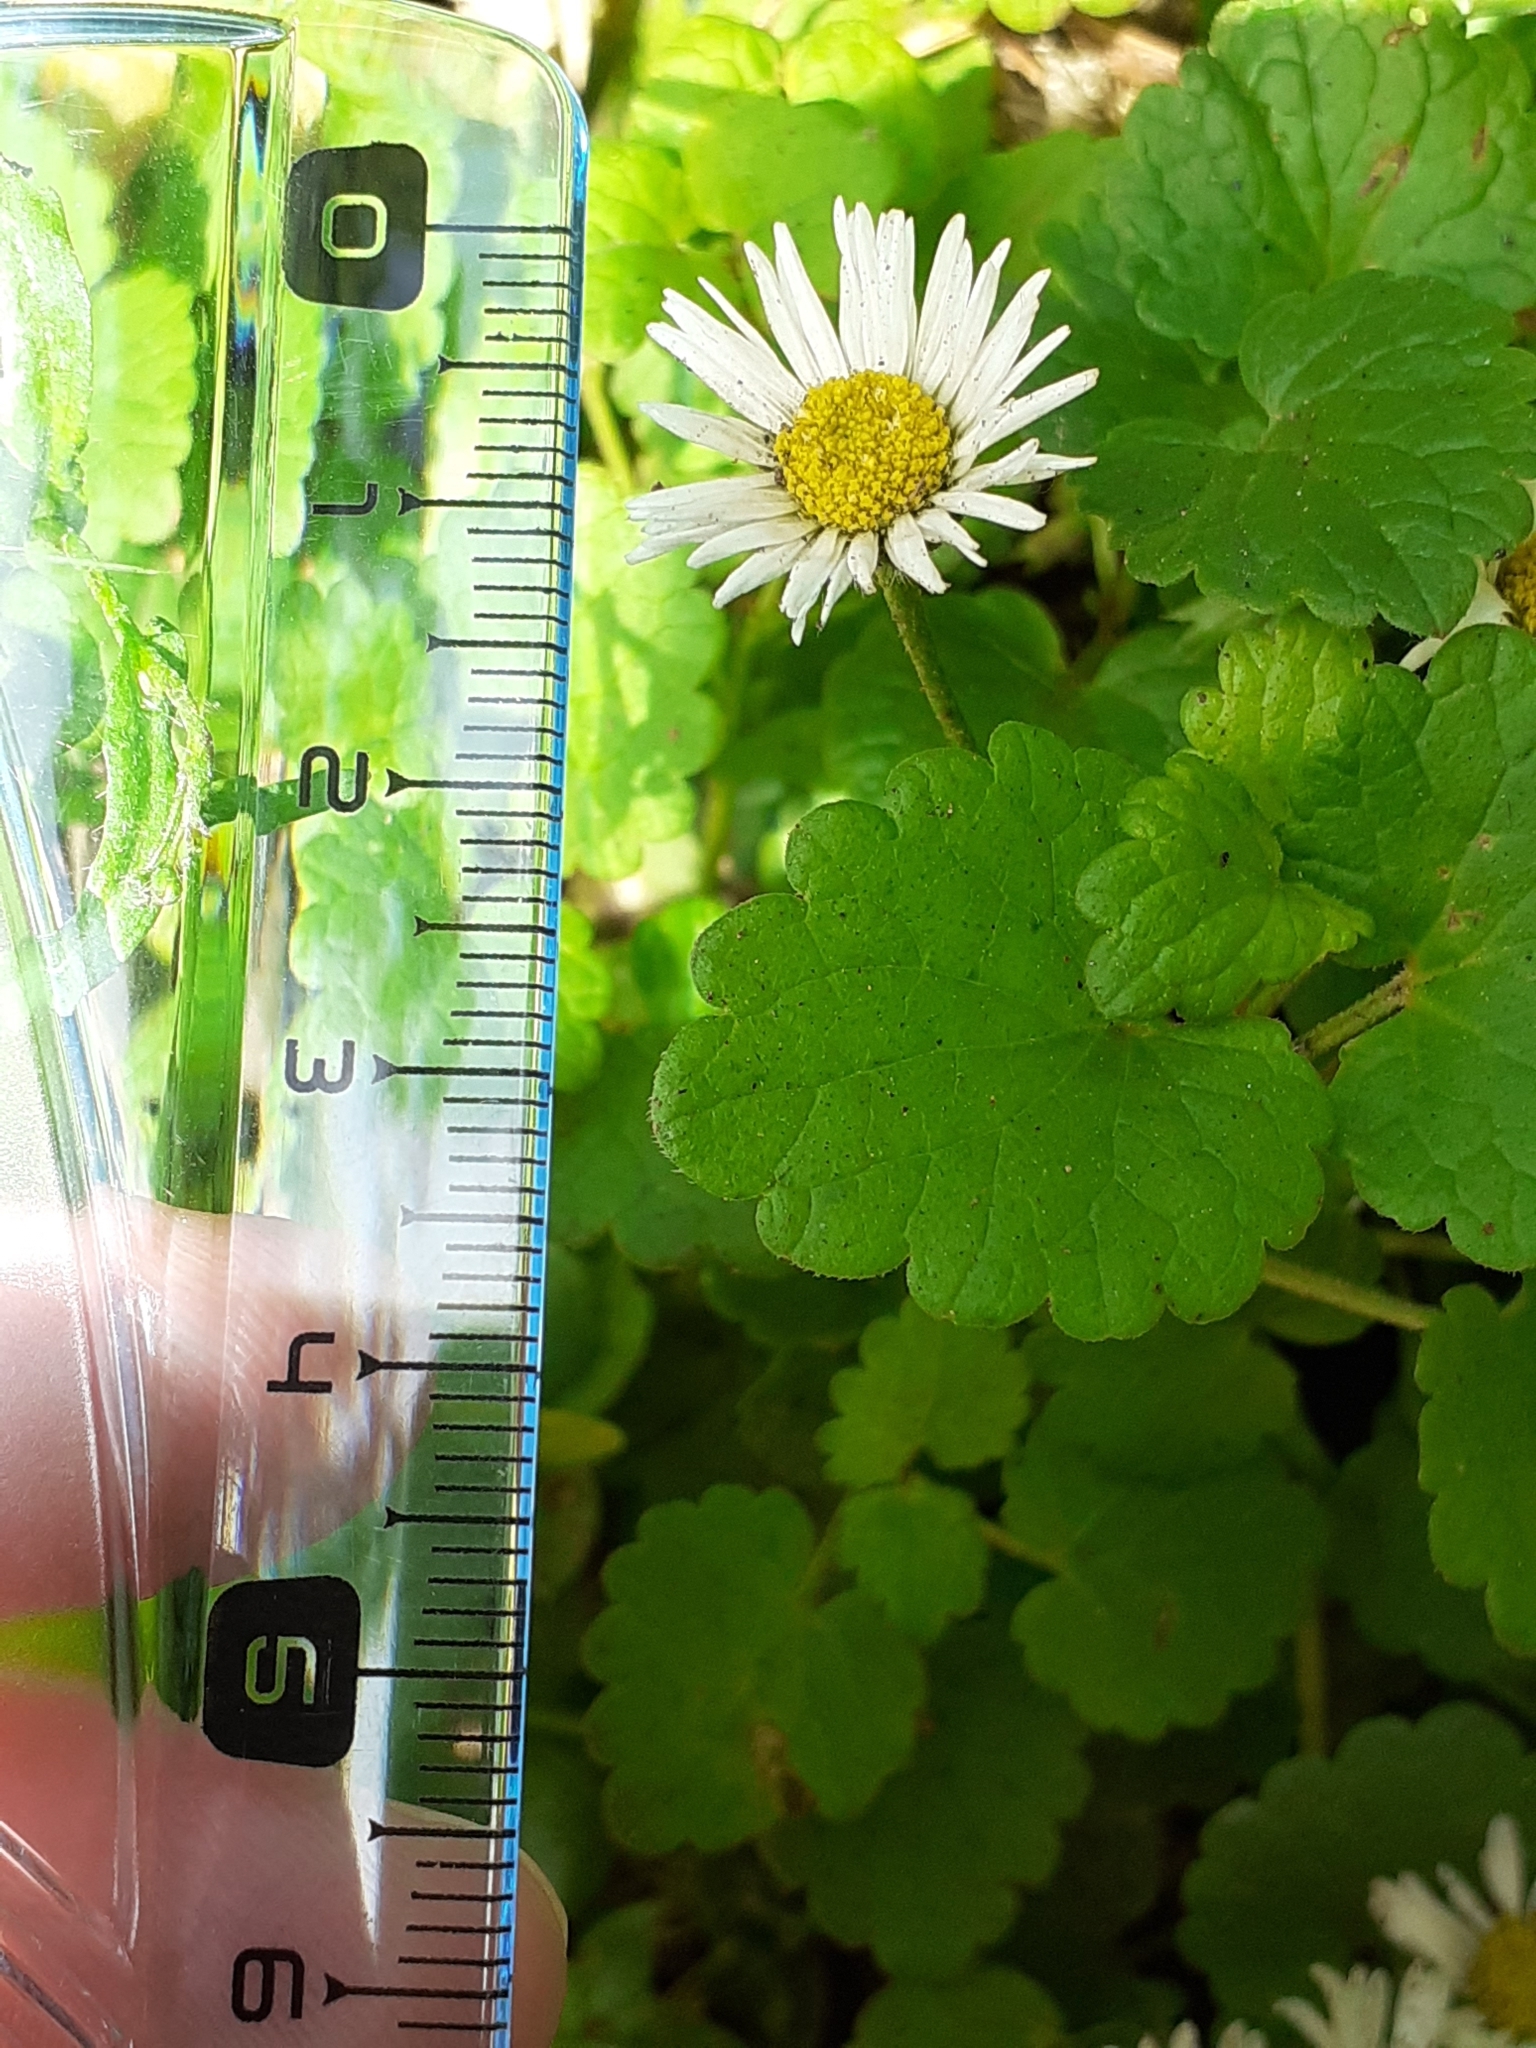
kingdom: Plantae
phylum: Tracheophyta
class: Magnoliopsida
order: Asterales
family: Asteraceae
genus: Bellis
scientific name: Bellis perennis
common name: Lawndaisy
